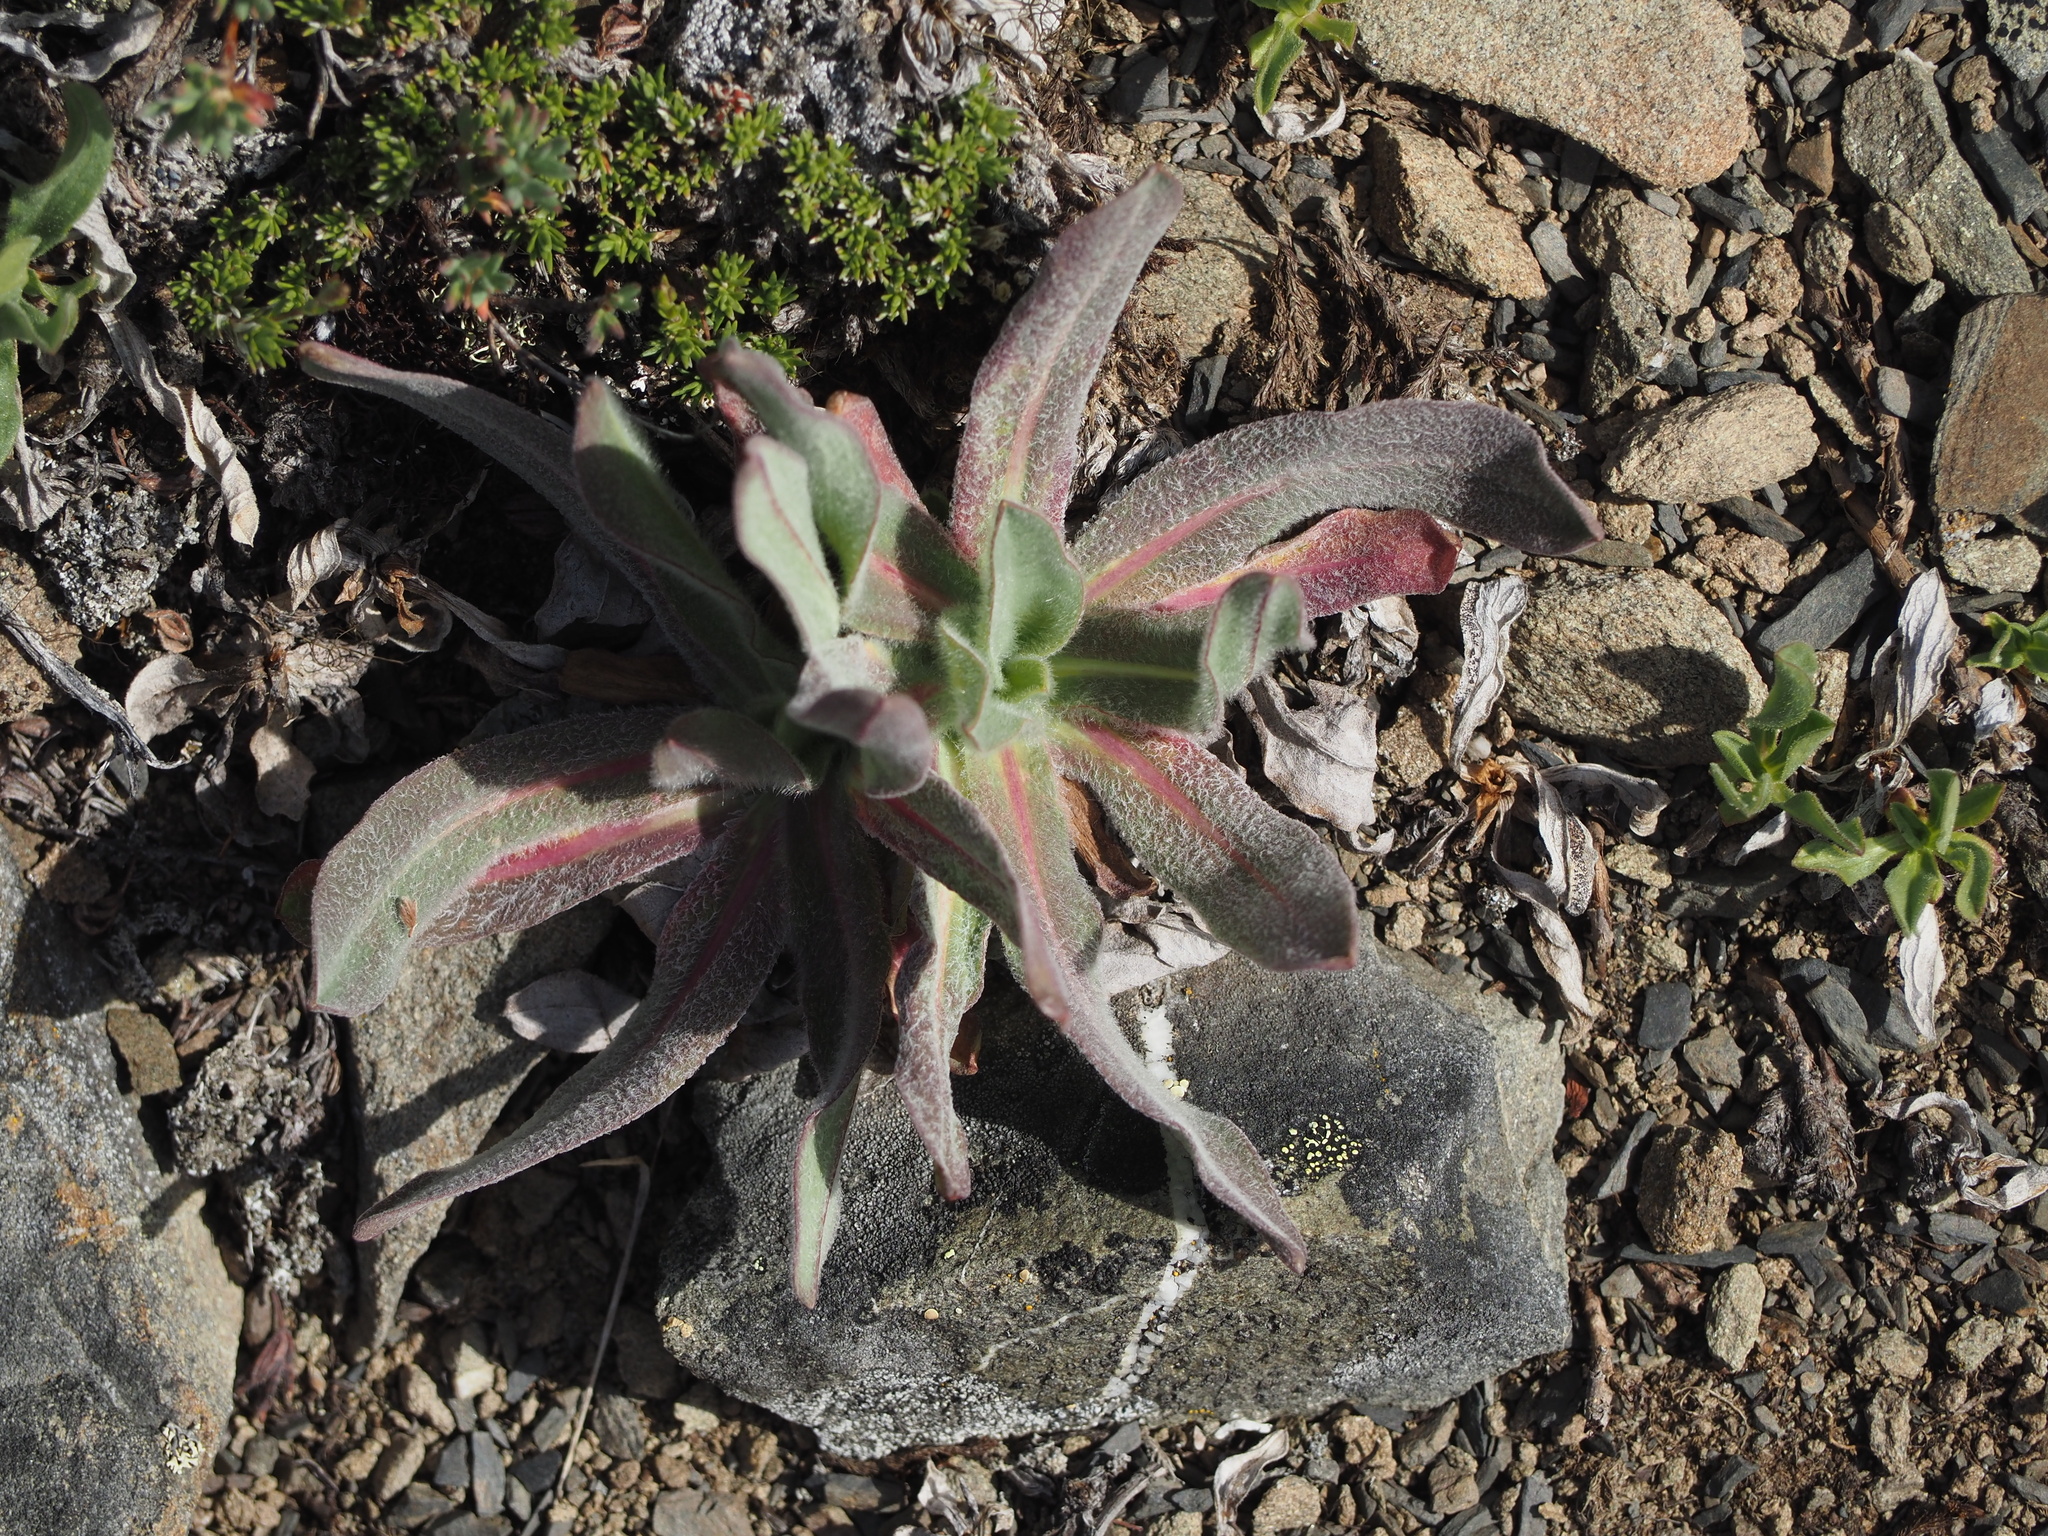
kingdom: Plantae
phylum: Tracheophyta
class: Magnoliopsida
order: Asterales
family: Asteraceae
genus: Agoseris
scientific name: Agoseris glauca
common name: Prairie agoseris
